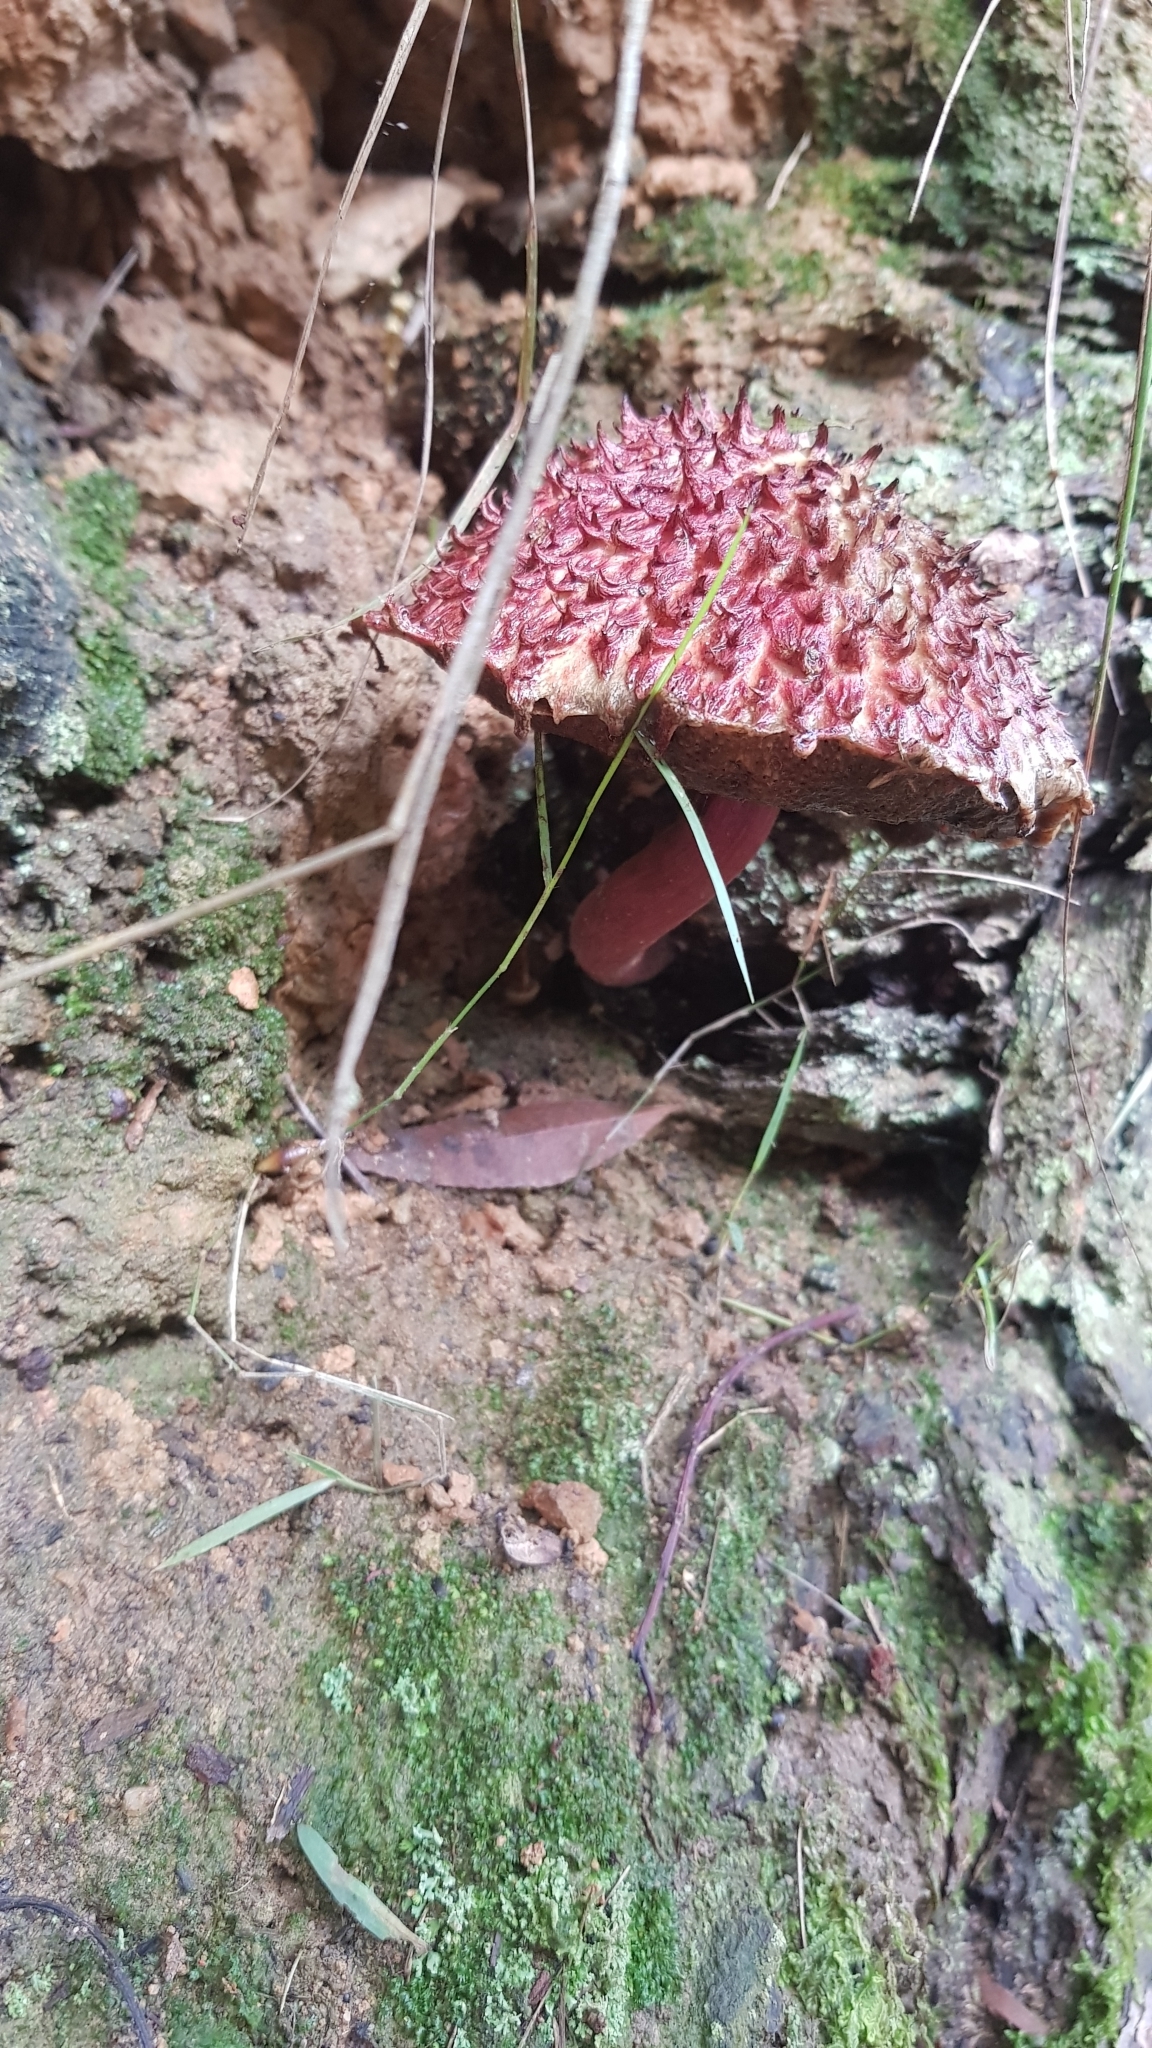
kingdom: Fungi
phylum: Basidiomycota
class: Agaricomycetes
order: Boletales
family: Boletaceae
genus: Boletellus
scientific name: Boletellus emodensis
